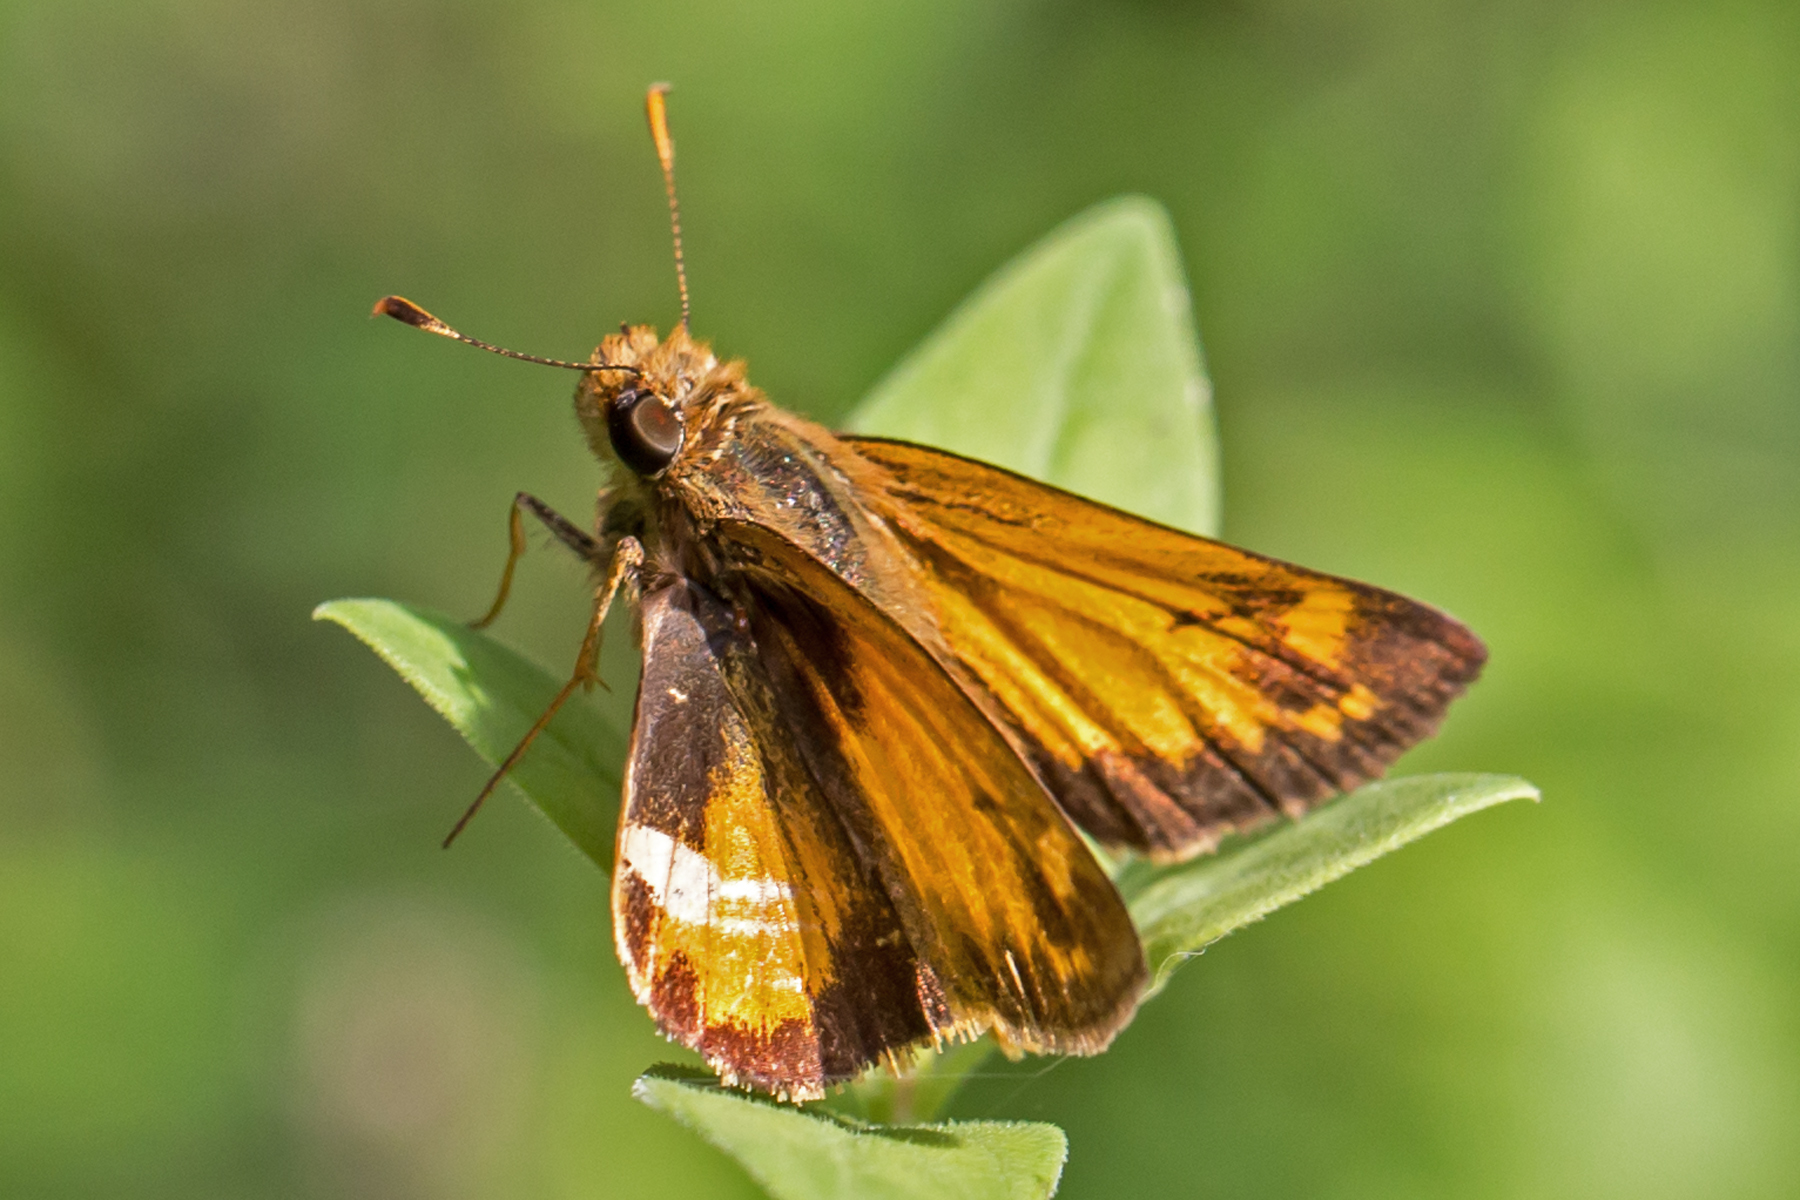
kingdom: Animalia
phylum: Arthropoda
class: Insecta
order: Lepidoptera
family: Hesperiidae
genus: Lon
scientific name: Lon zabulon
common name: Zabulon skipper
